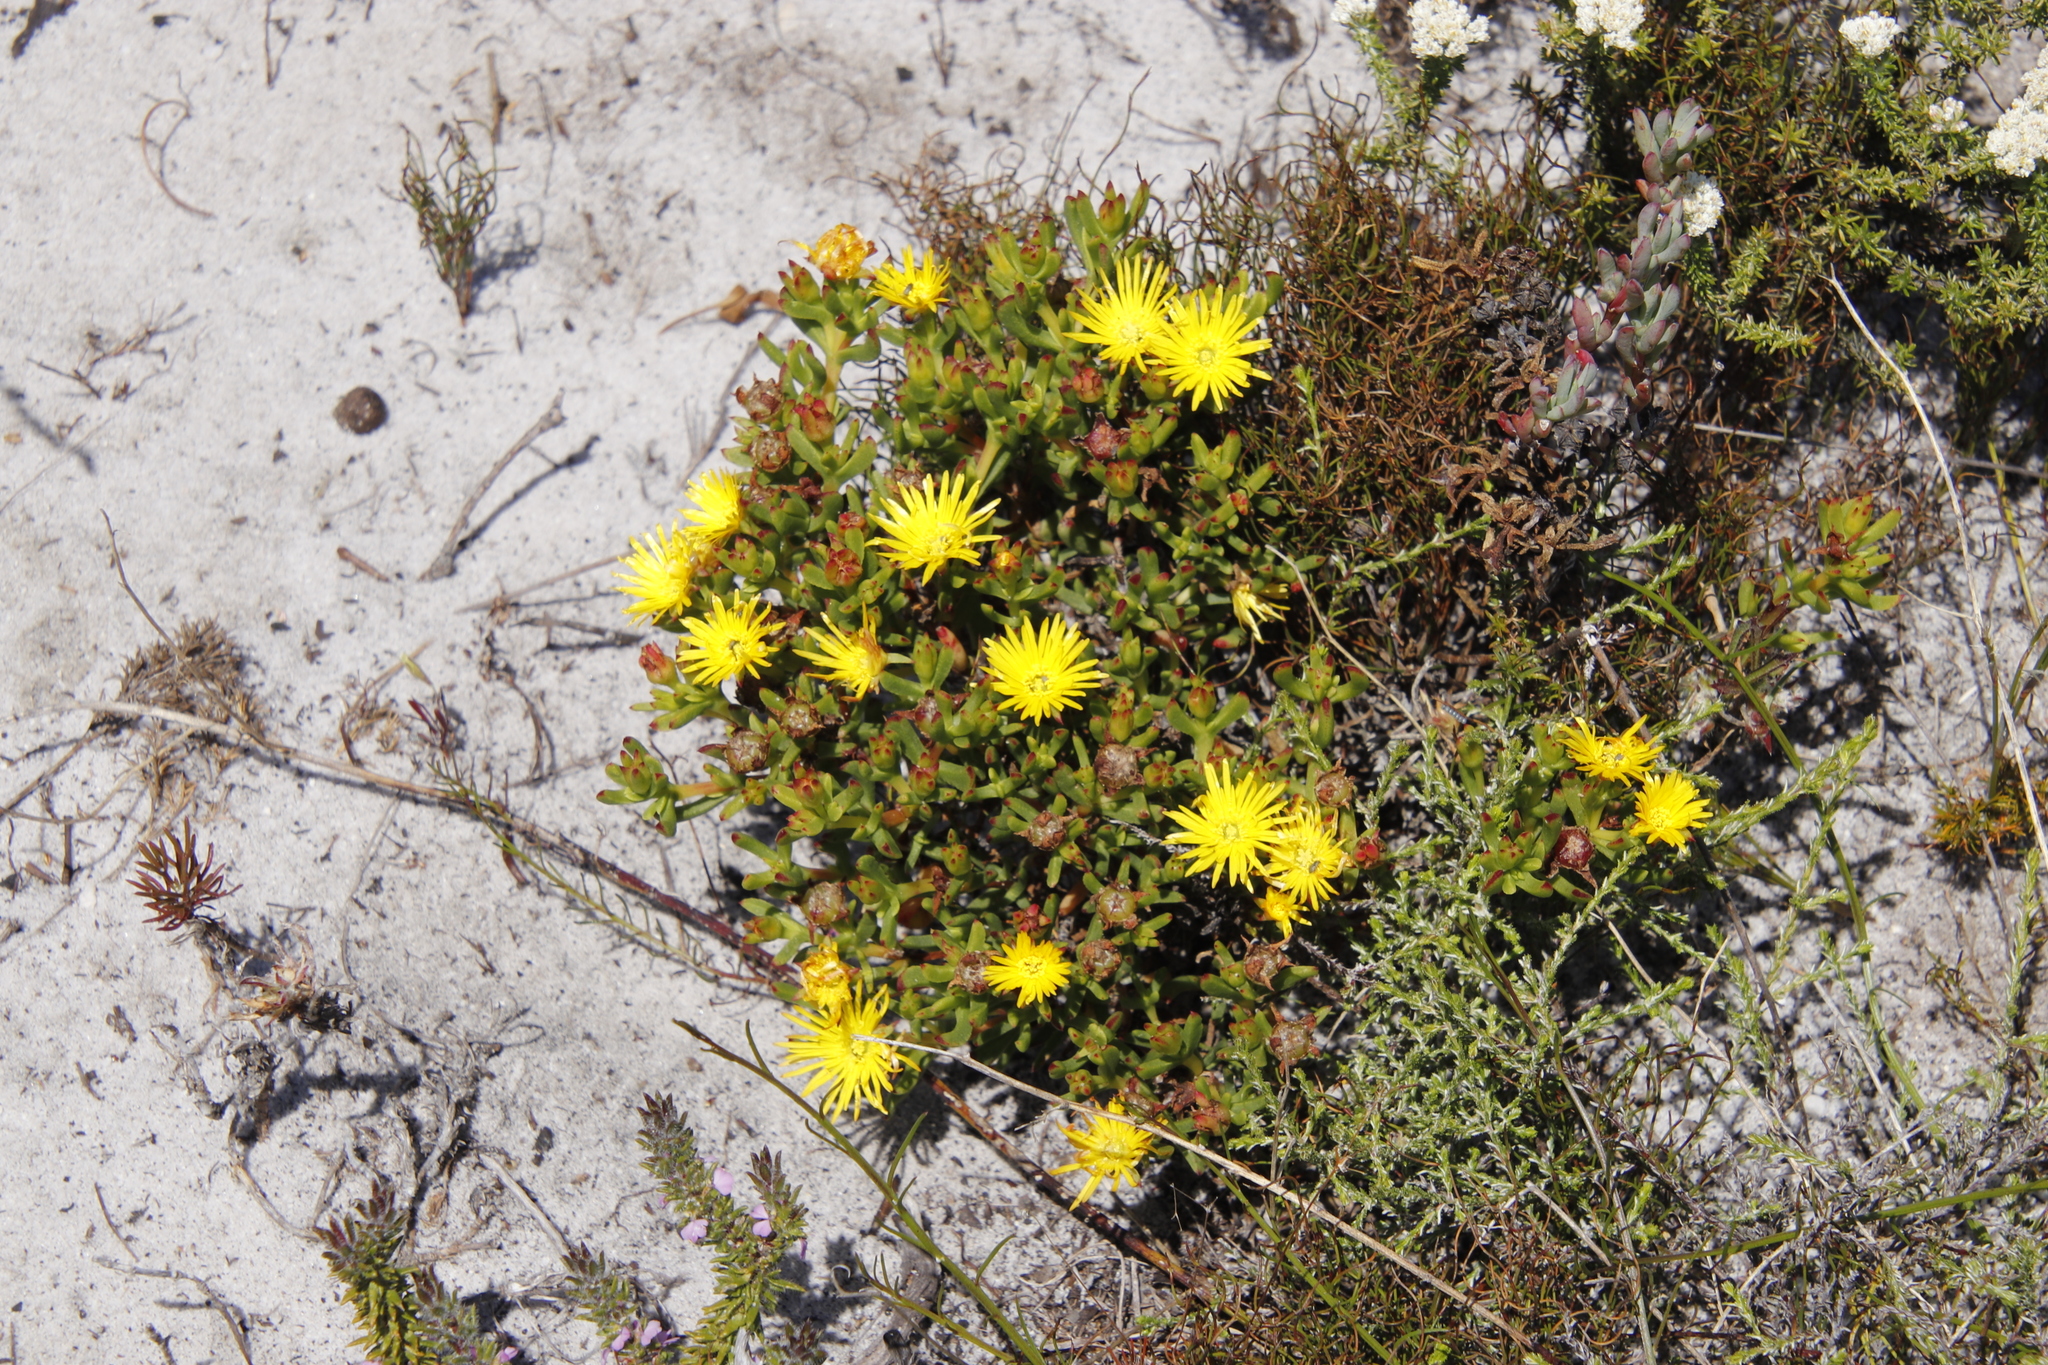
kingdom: Plantae
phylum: Tracheophyta
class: Magnoliopsida
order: Caryophyllales
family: Aizoaceae
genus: Lampranthus
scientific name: Lampranthus promontorii
